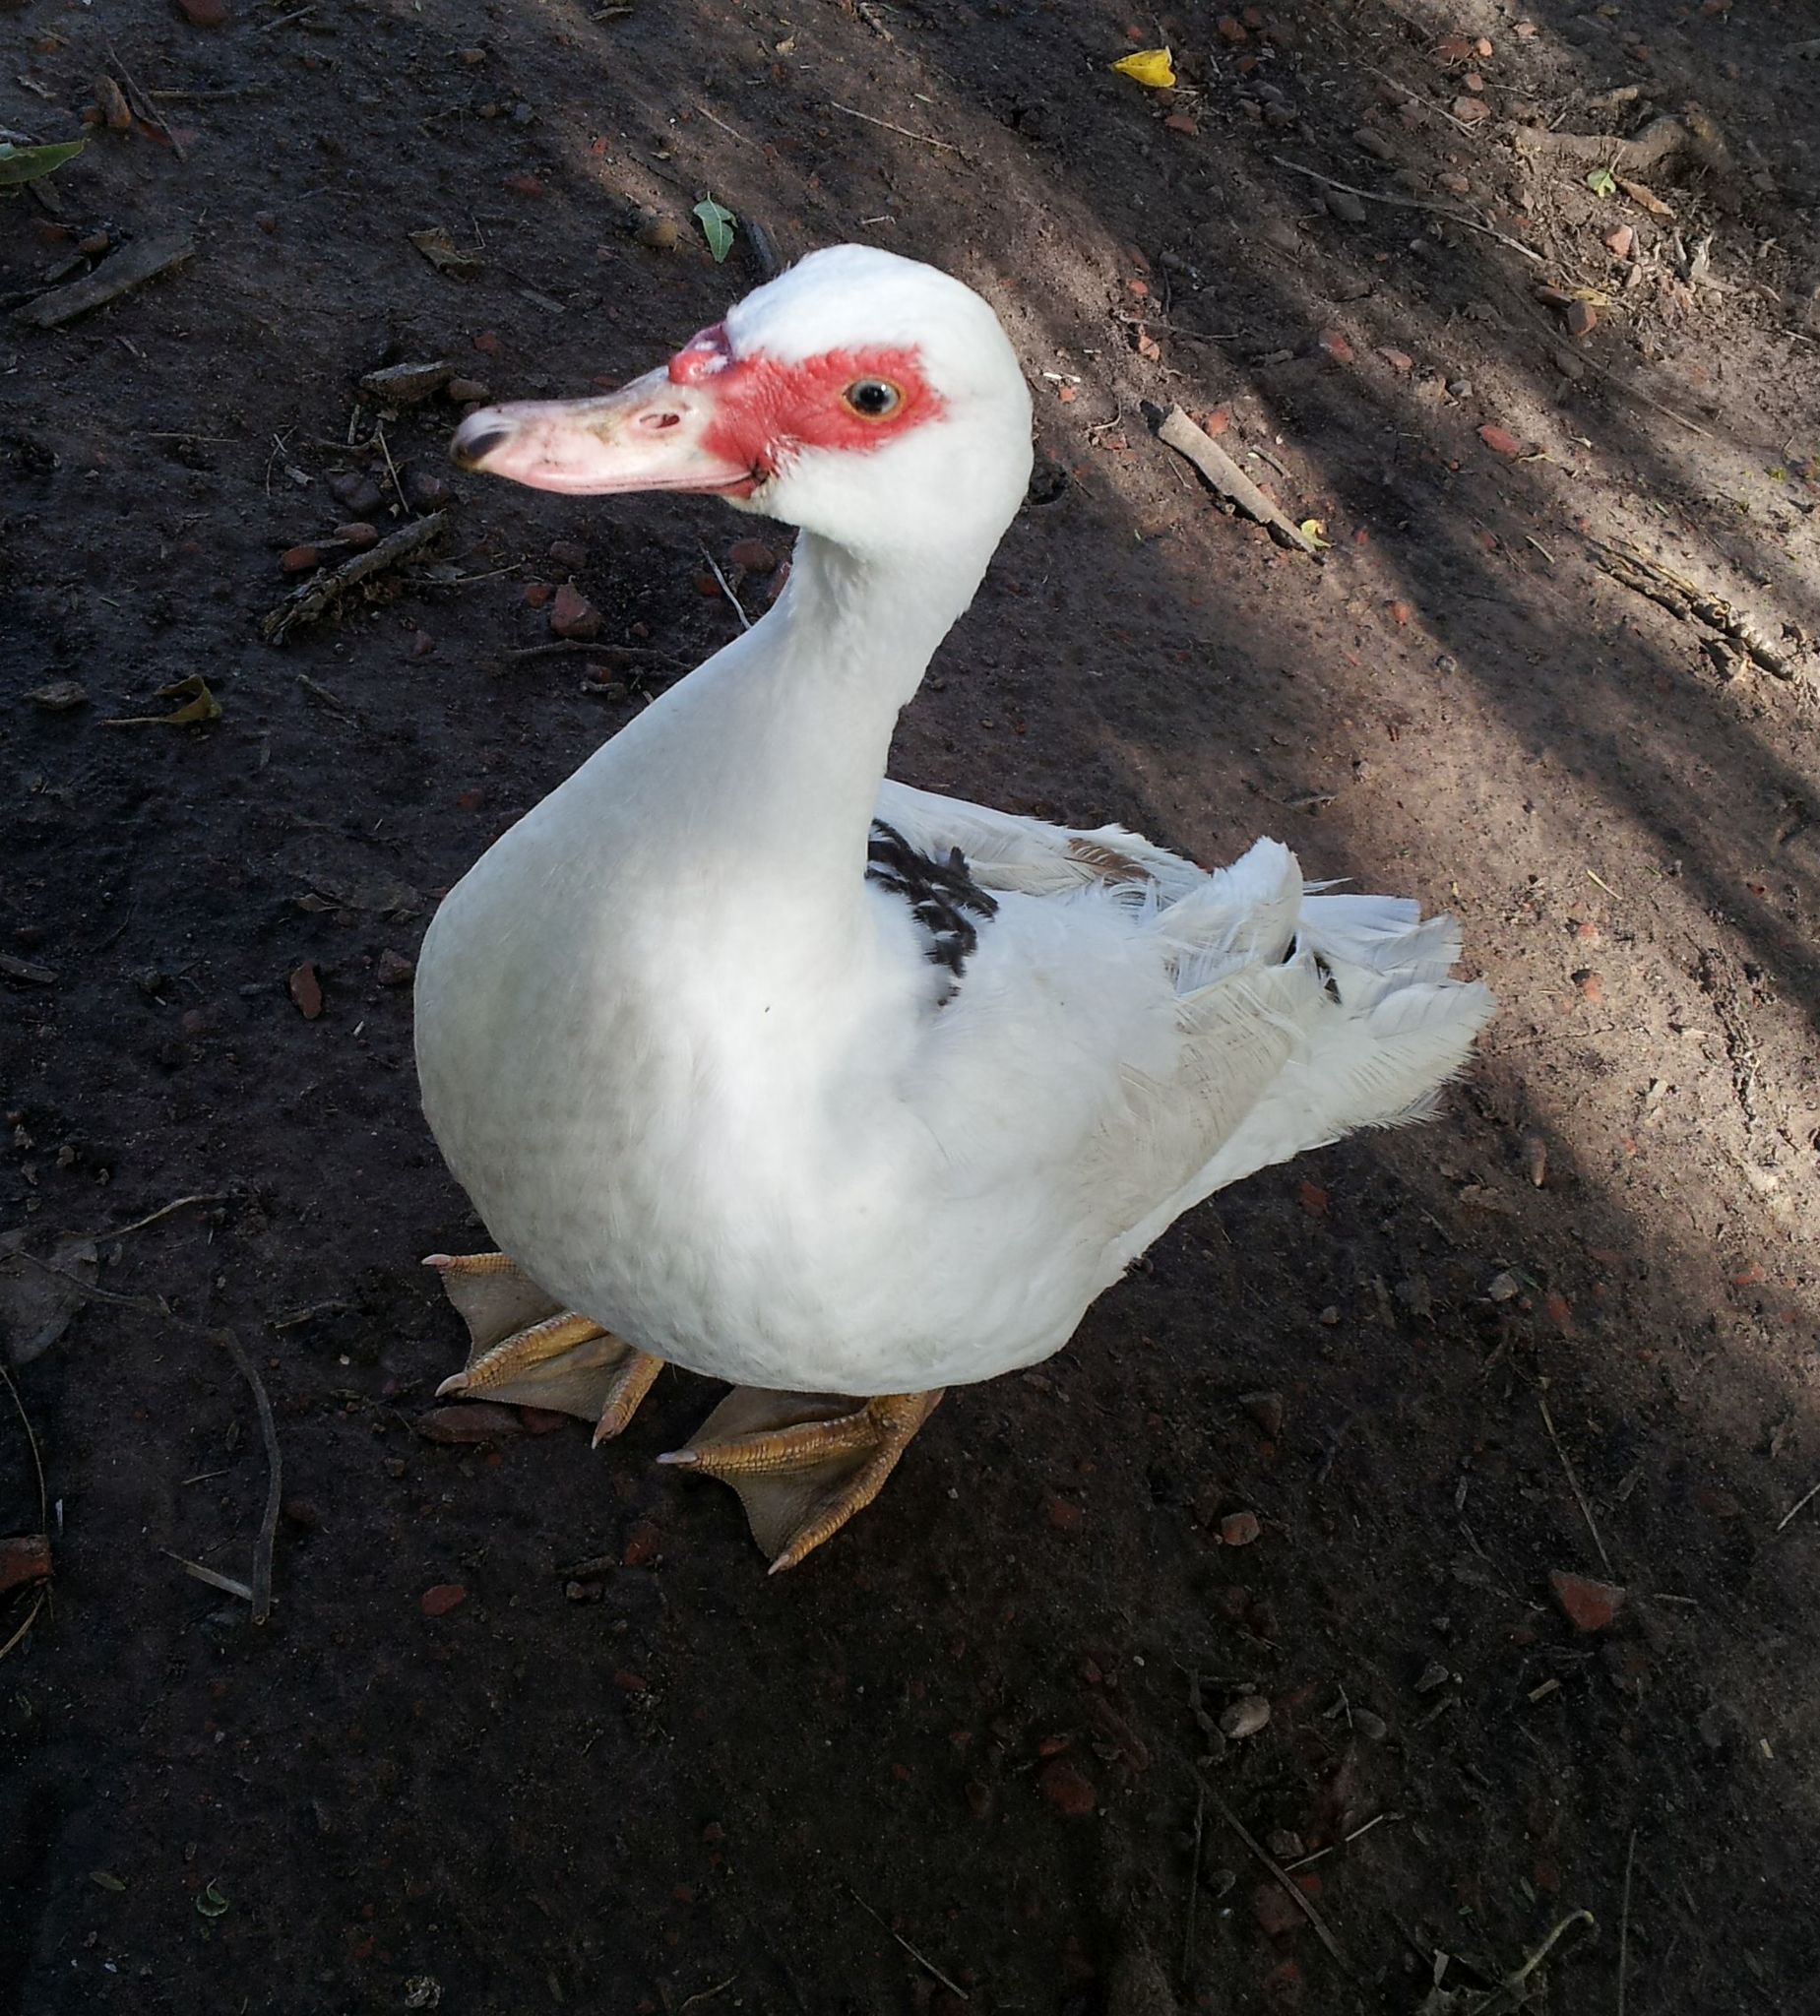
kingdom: Animalia
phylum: Chordata
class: Aves
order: Anseriformes
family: Anatidae
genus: Cairina
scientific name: Cairina moschata
